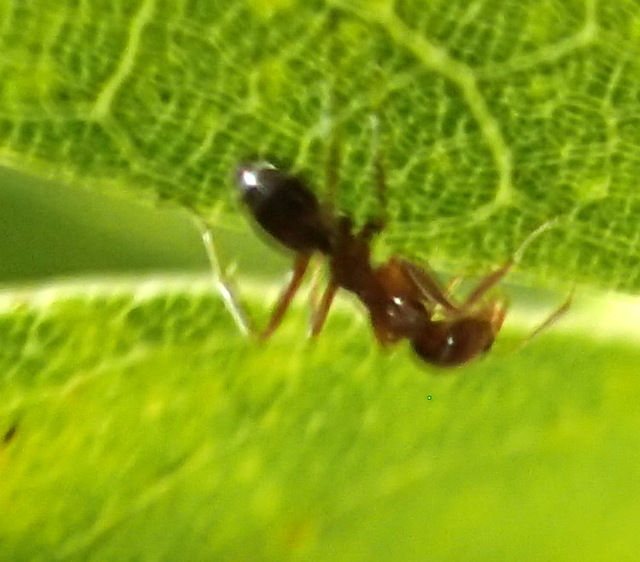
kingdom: Animalia
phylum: Arthropoda
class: Insecta
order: Hymenoptera
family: Formicidae
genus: Linepithema
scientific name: Linepithema humile
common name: Argentine ant
